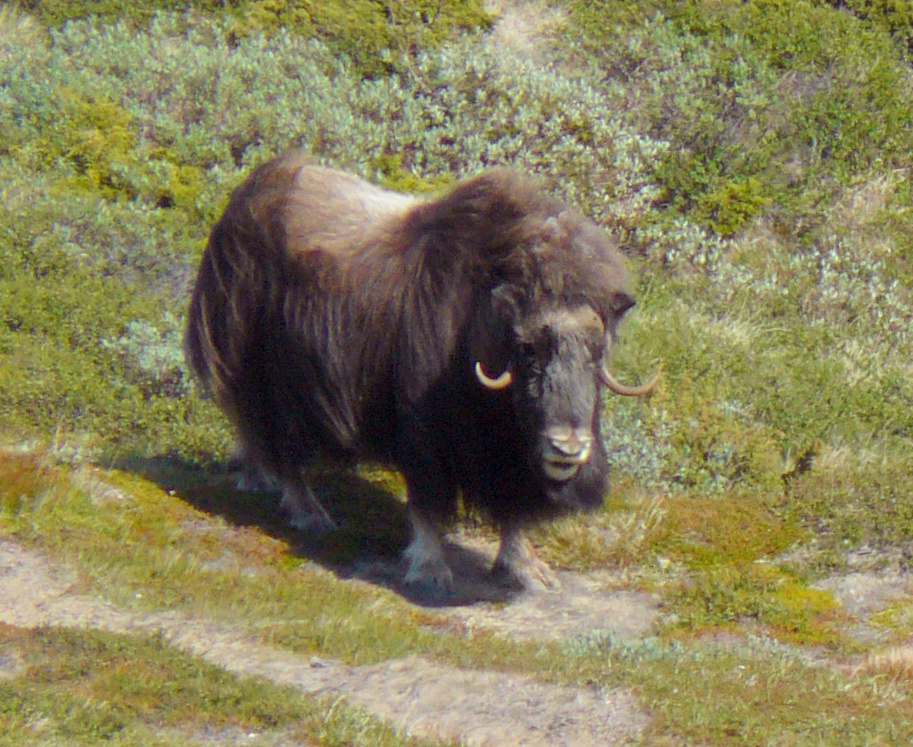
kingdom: Animalia
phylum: Chordata
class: Mammalia
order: Artiodactyla
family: Bovidae
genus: Ovibos
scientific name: Ovibos moschatus
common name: Muskox
